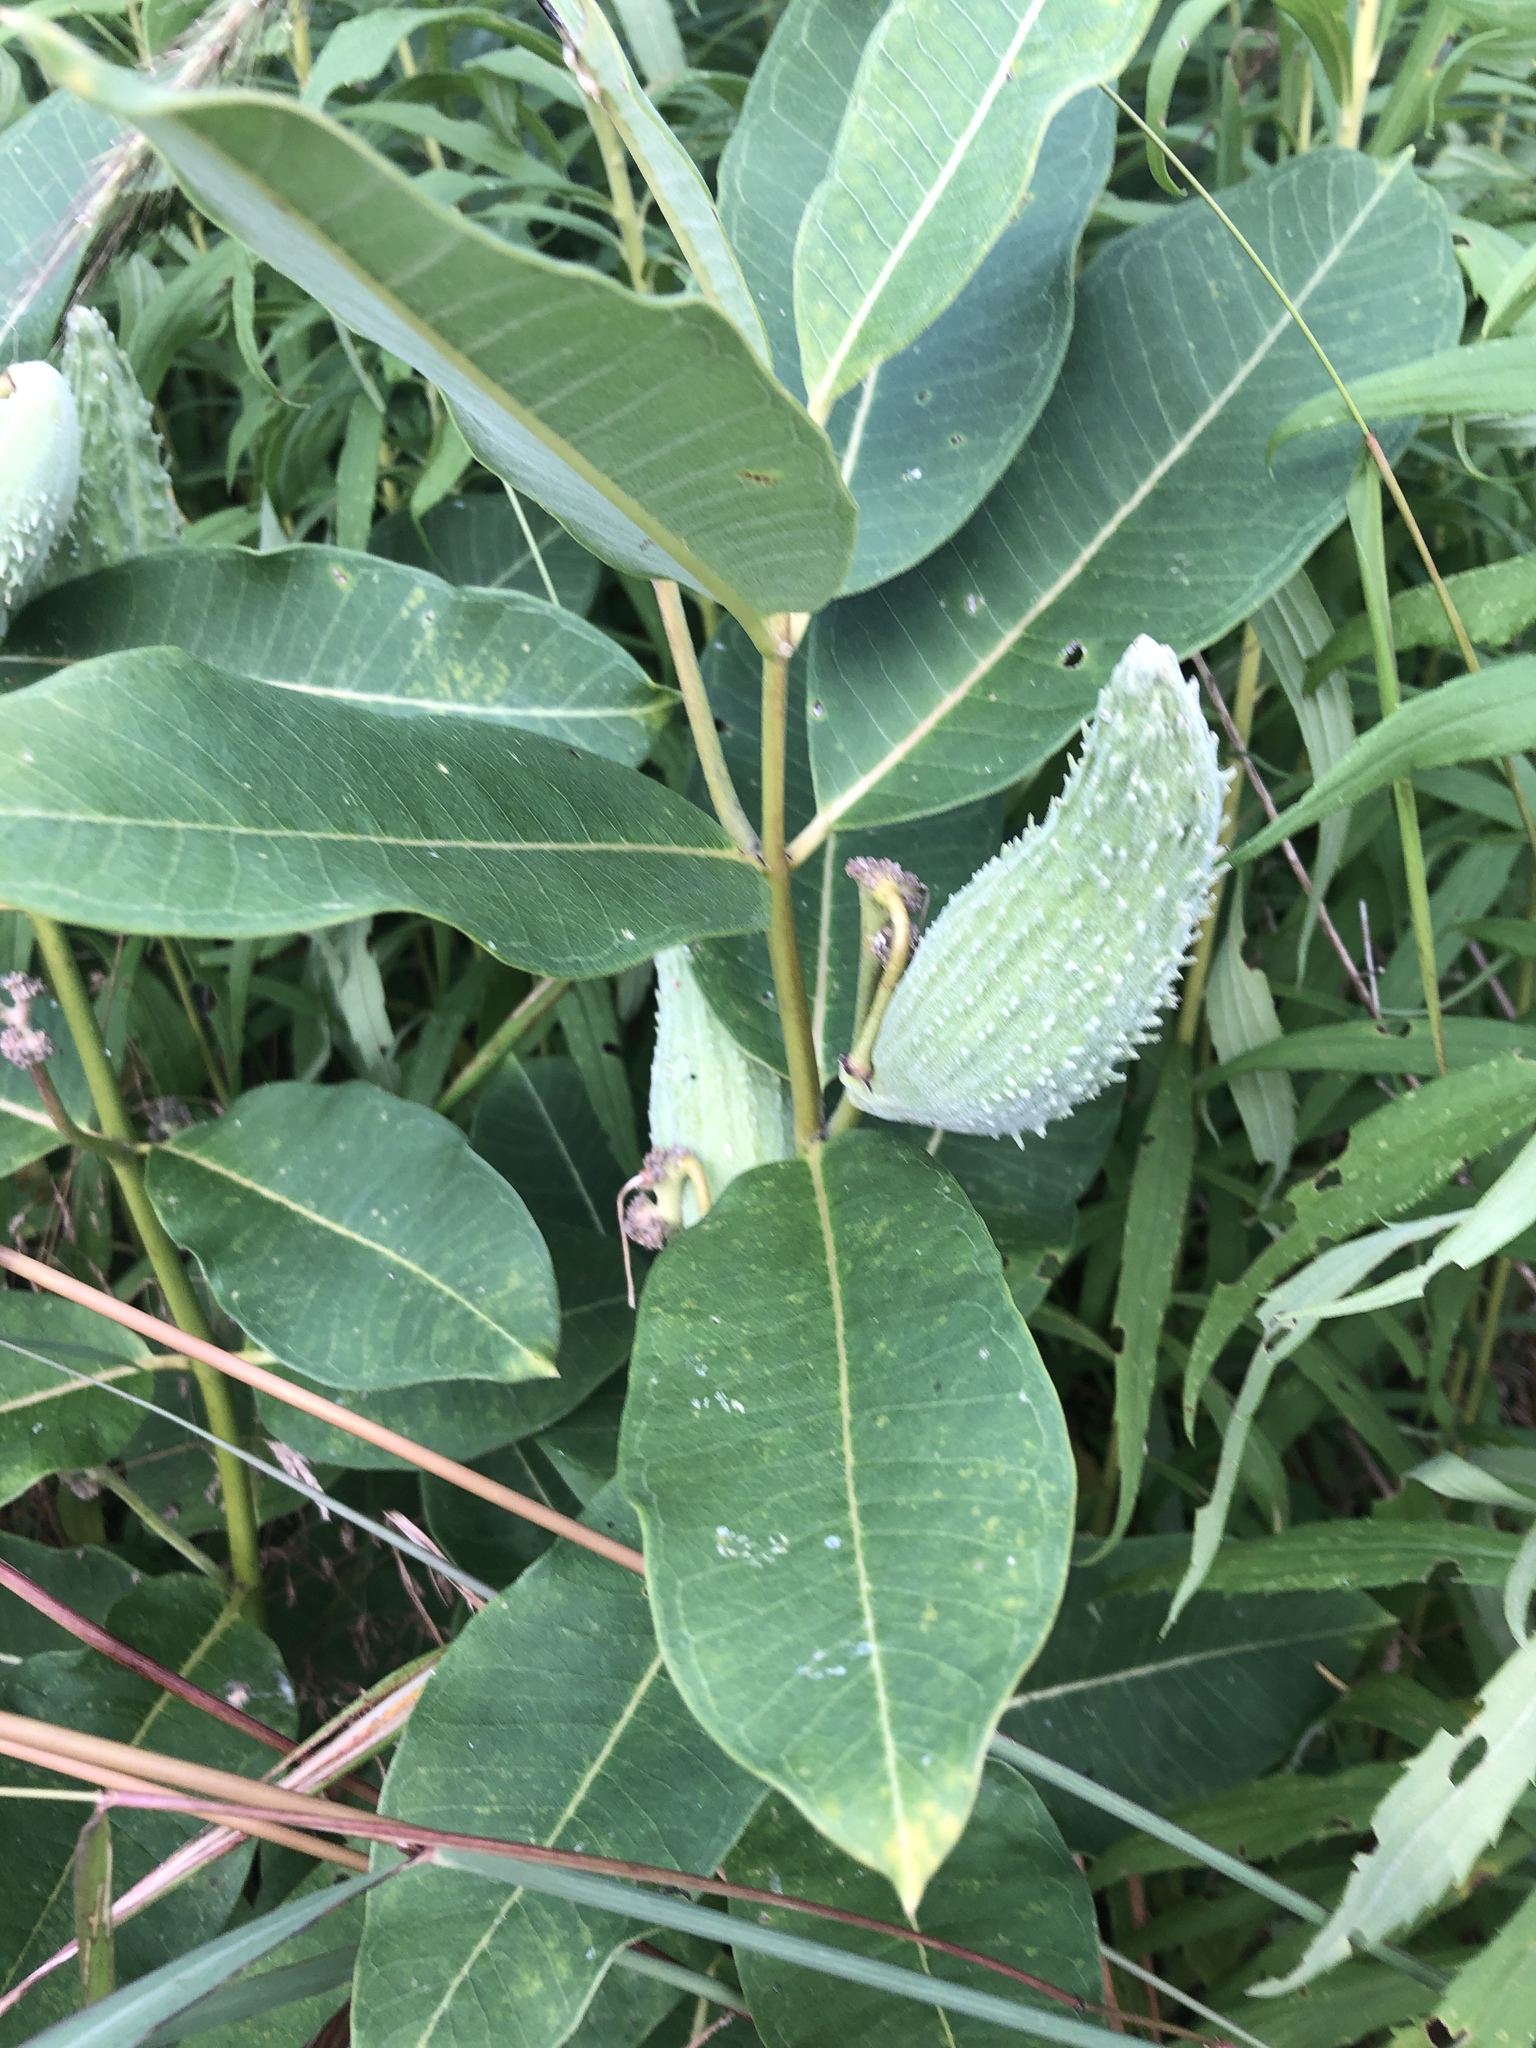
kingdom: Plantae
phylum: Tracheophyta
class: Magnoliopsida
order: Gentianales
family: Apocynaceae
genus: Asclepias
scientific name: Asclepias syriaca
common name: Common milkweed
